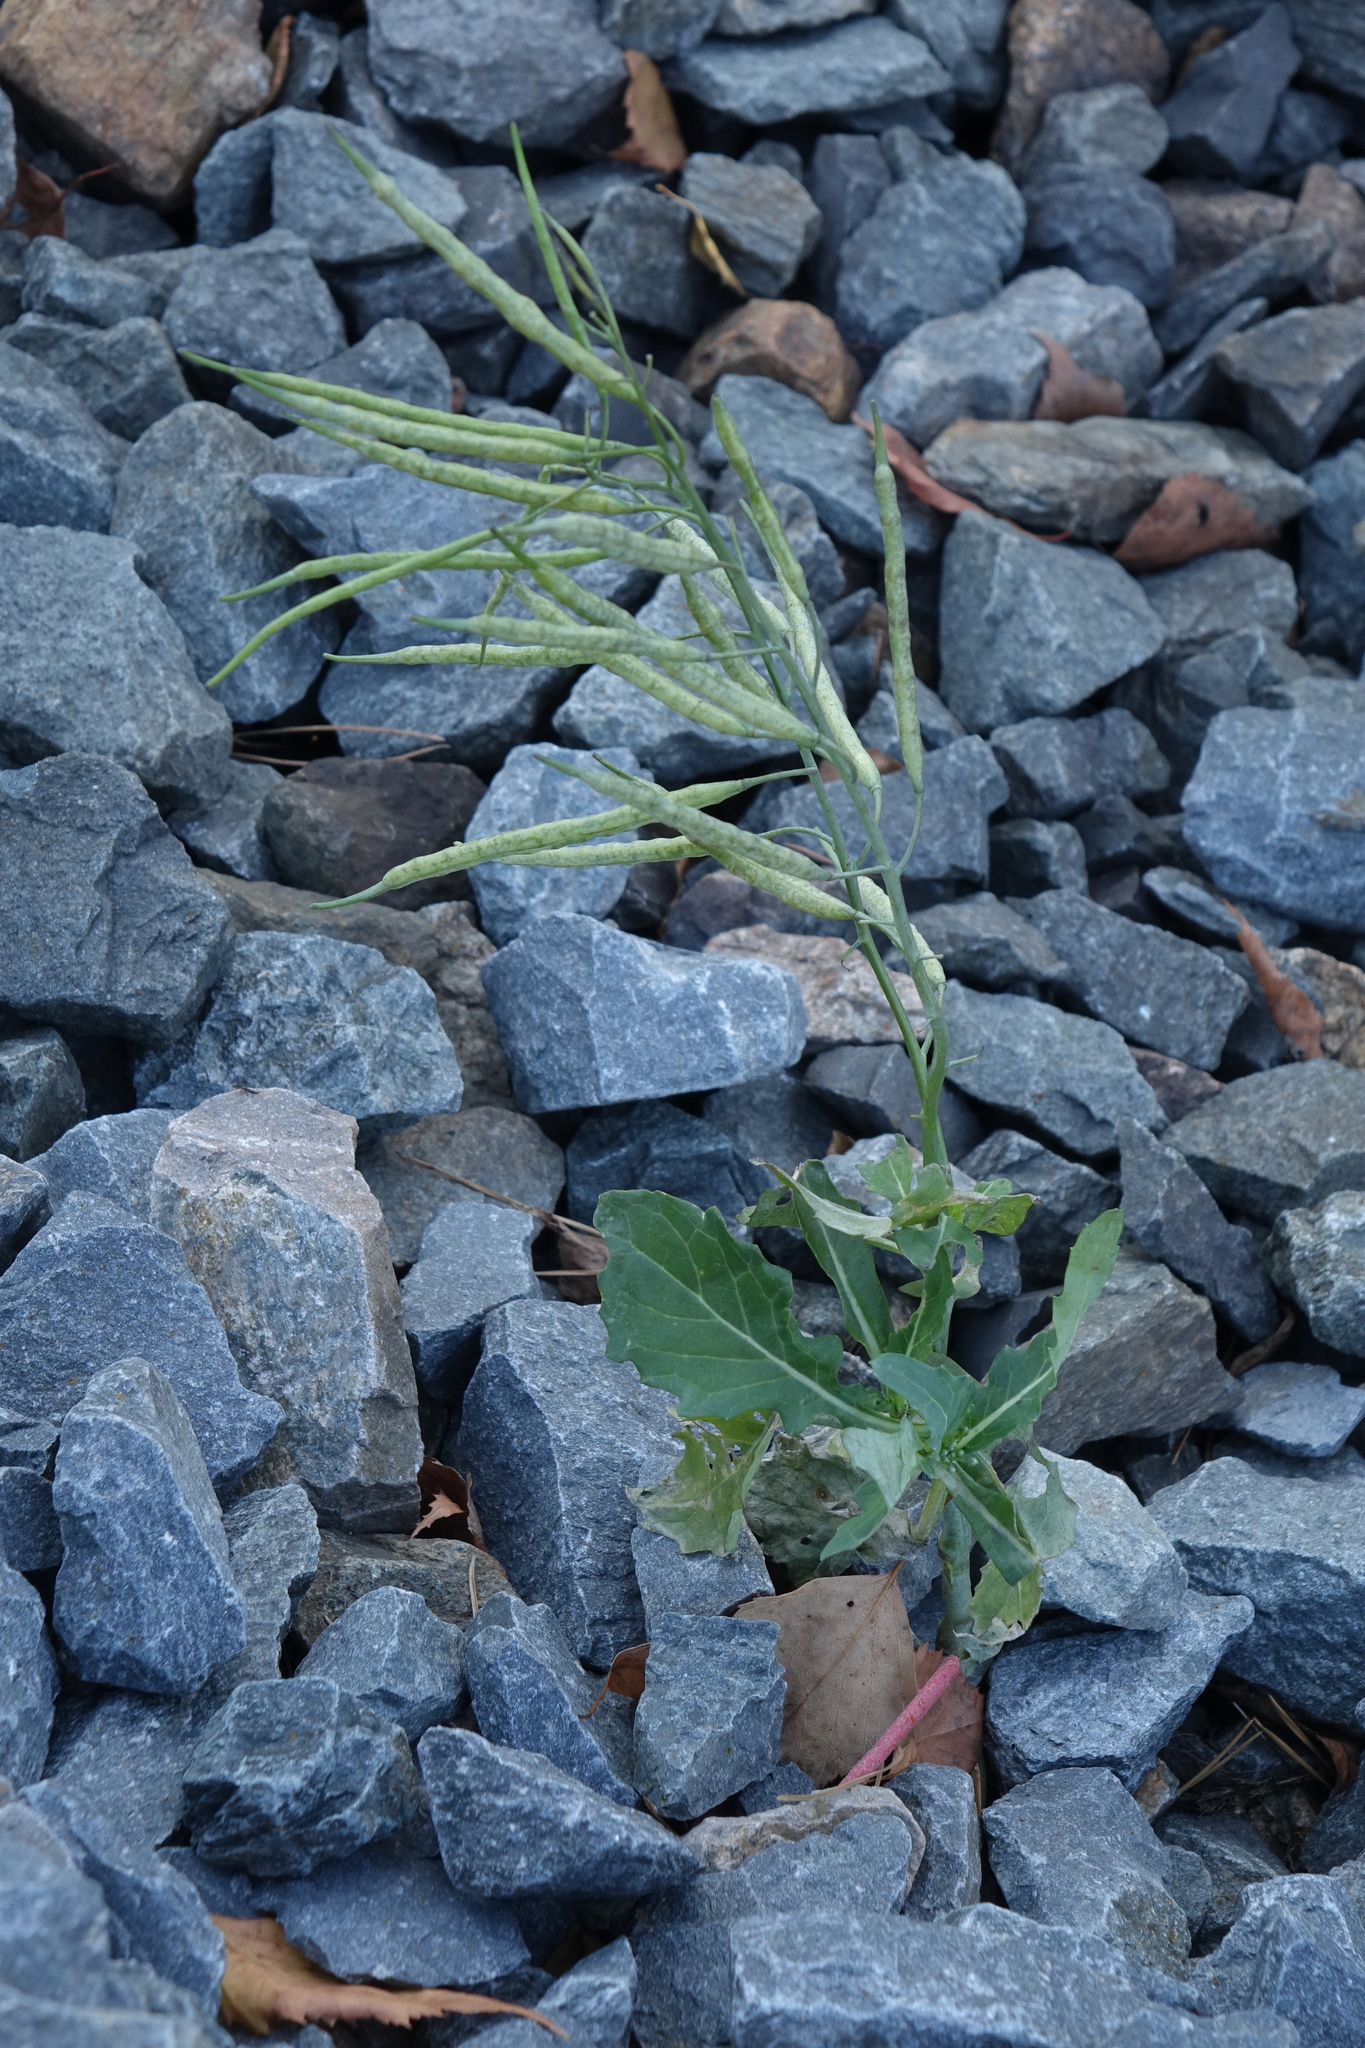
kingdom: Plantae
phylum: Tracheophyta
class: Magnoliopsida
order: Brassicales
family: Brassicaceae
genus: Brassica
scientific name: Brassica napus
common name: Rape
